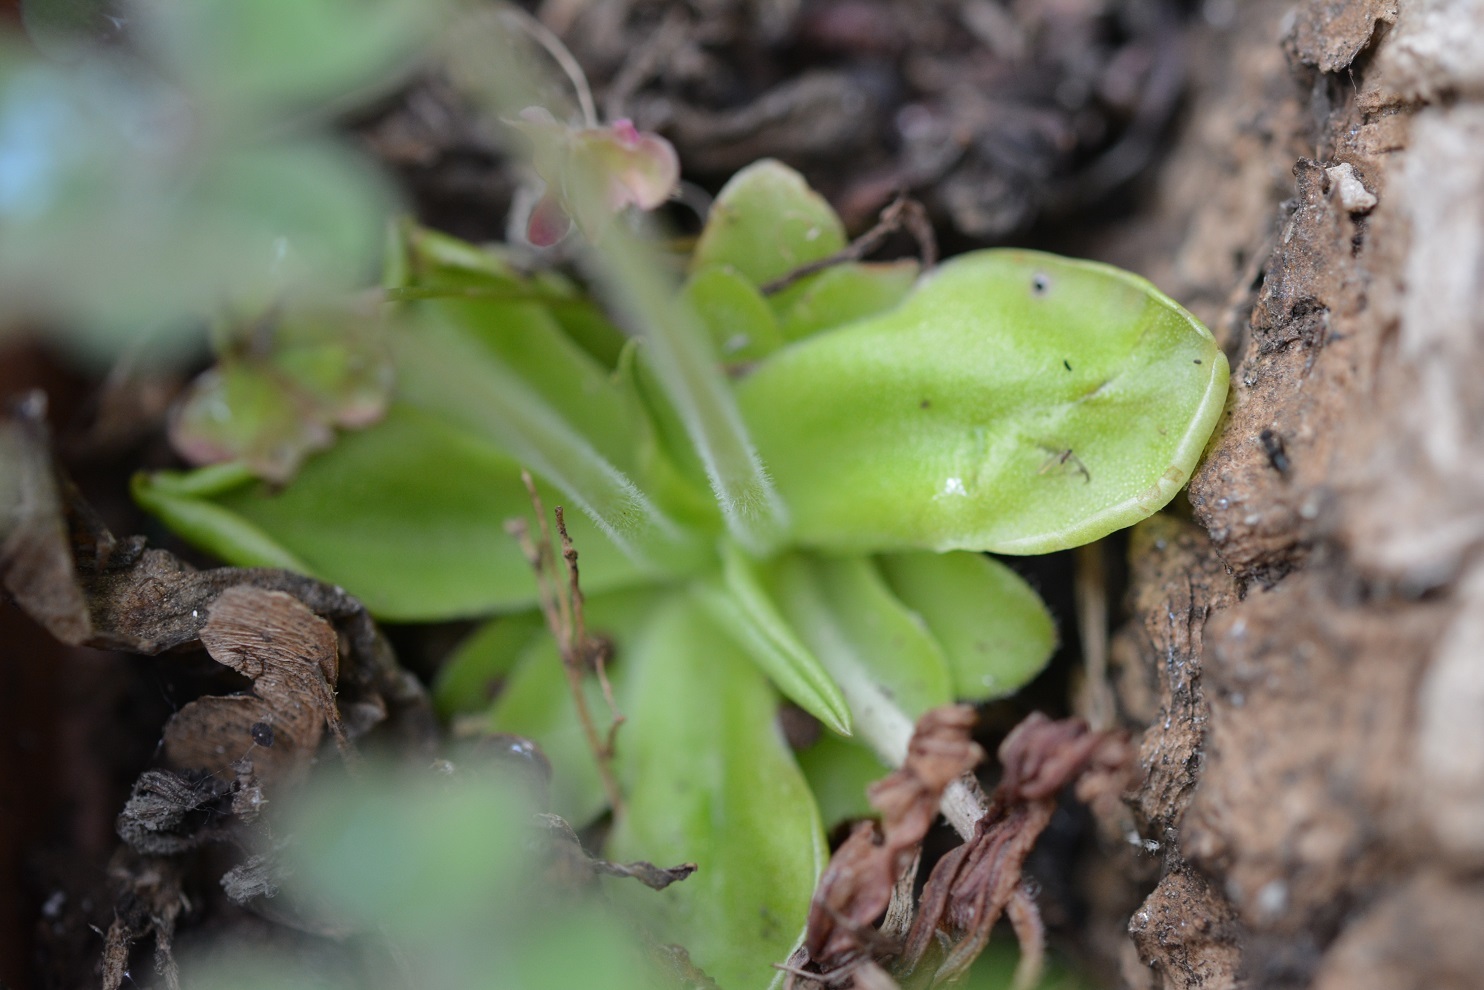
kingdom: Plantae
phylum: Tracheophyta
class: Magnoliopsida
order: Lamiales
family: Lentibulariaceae
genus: Pinguicula
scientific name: Pinguicula moranensis
